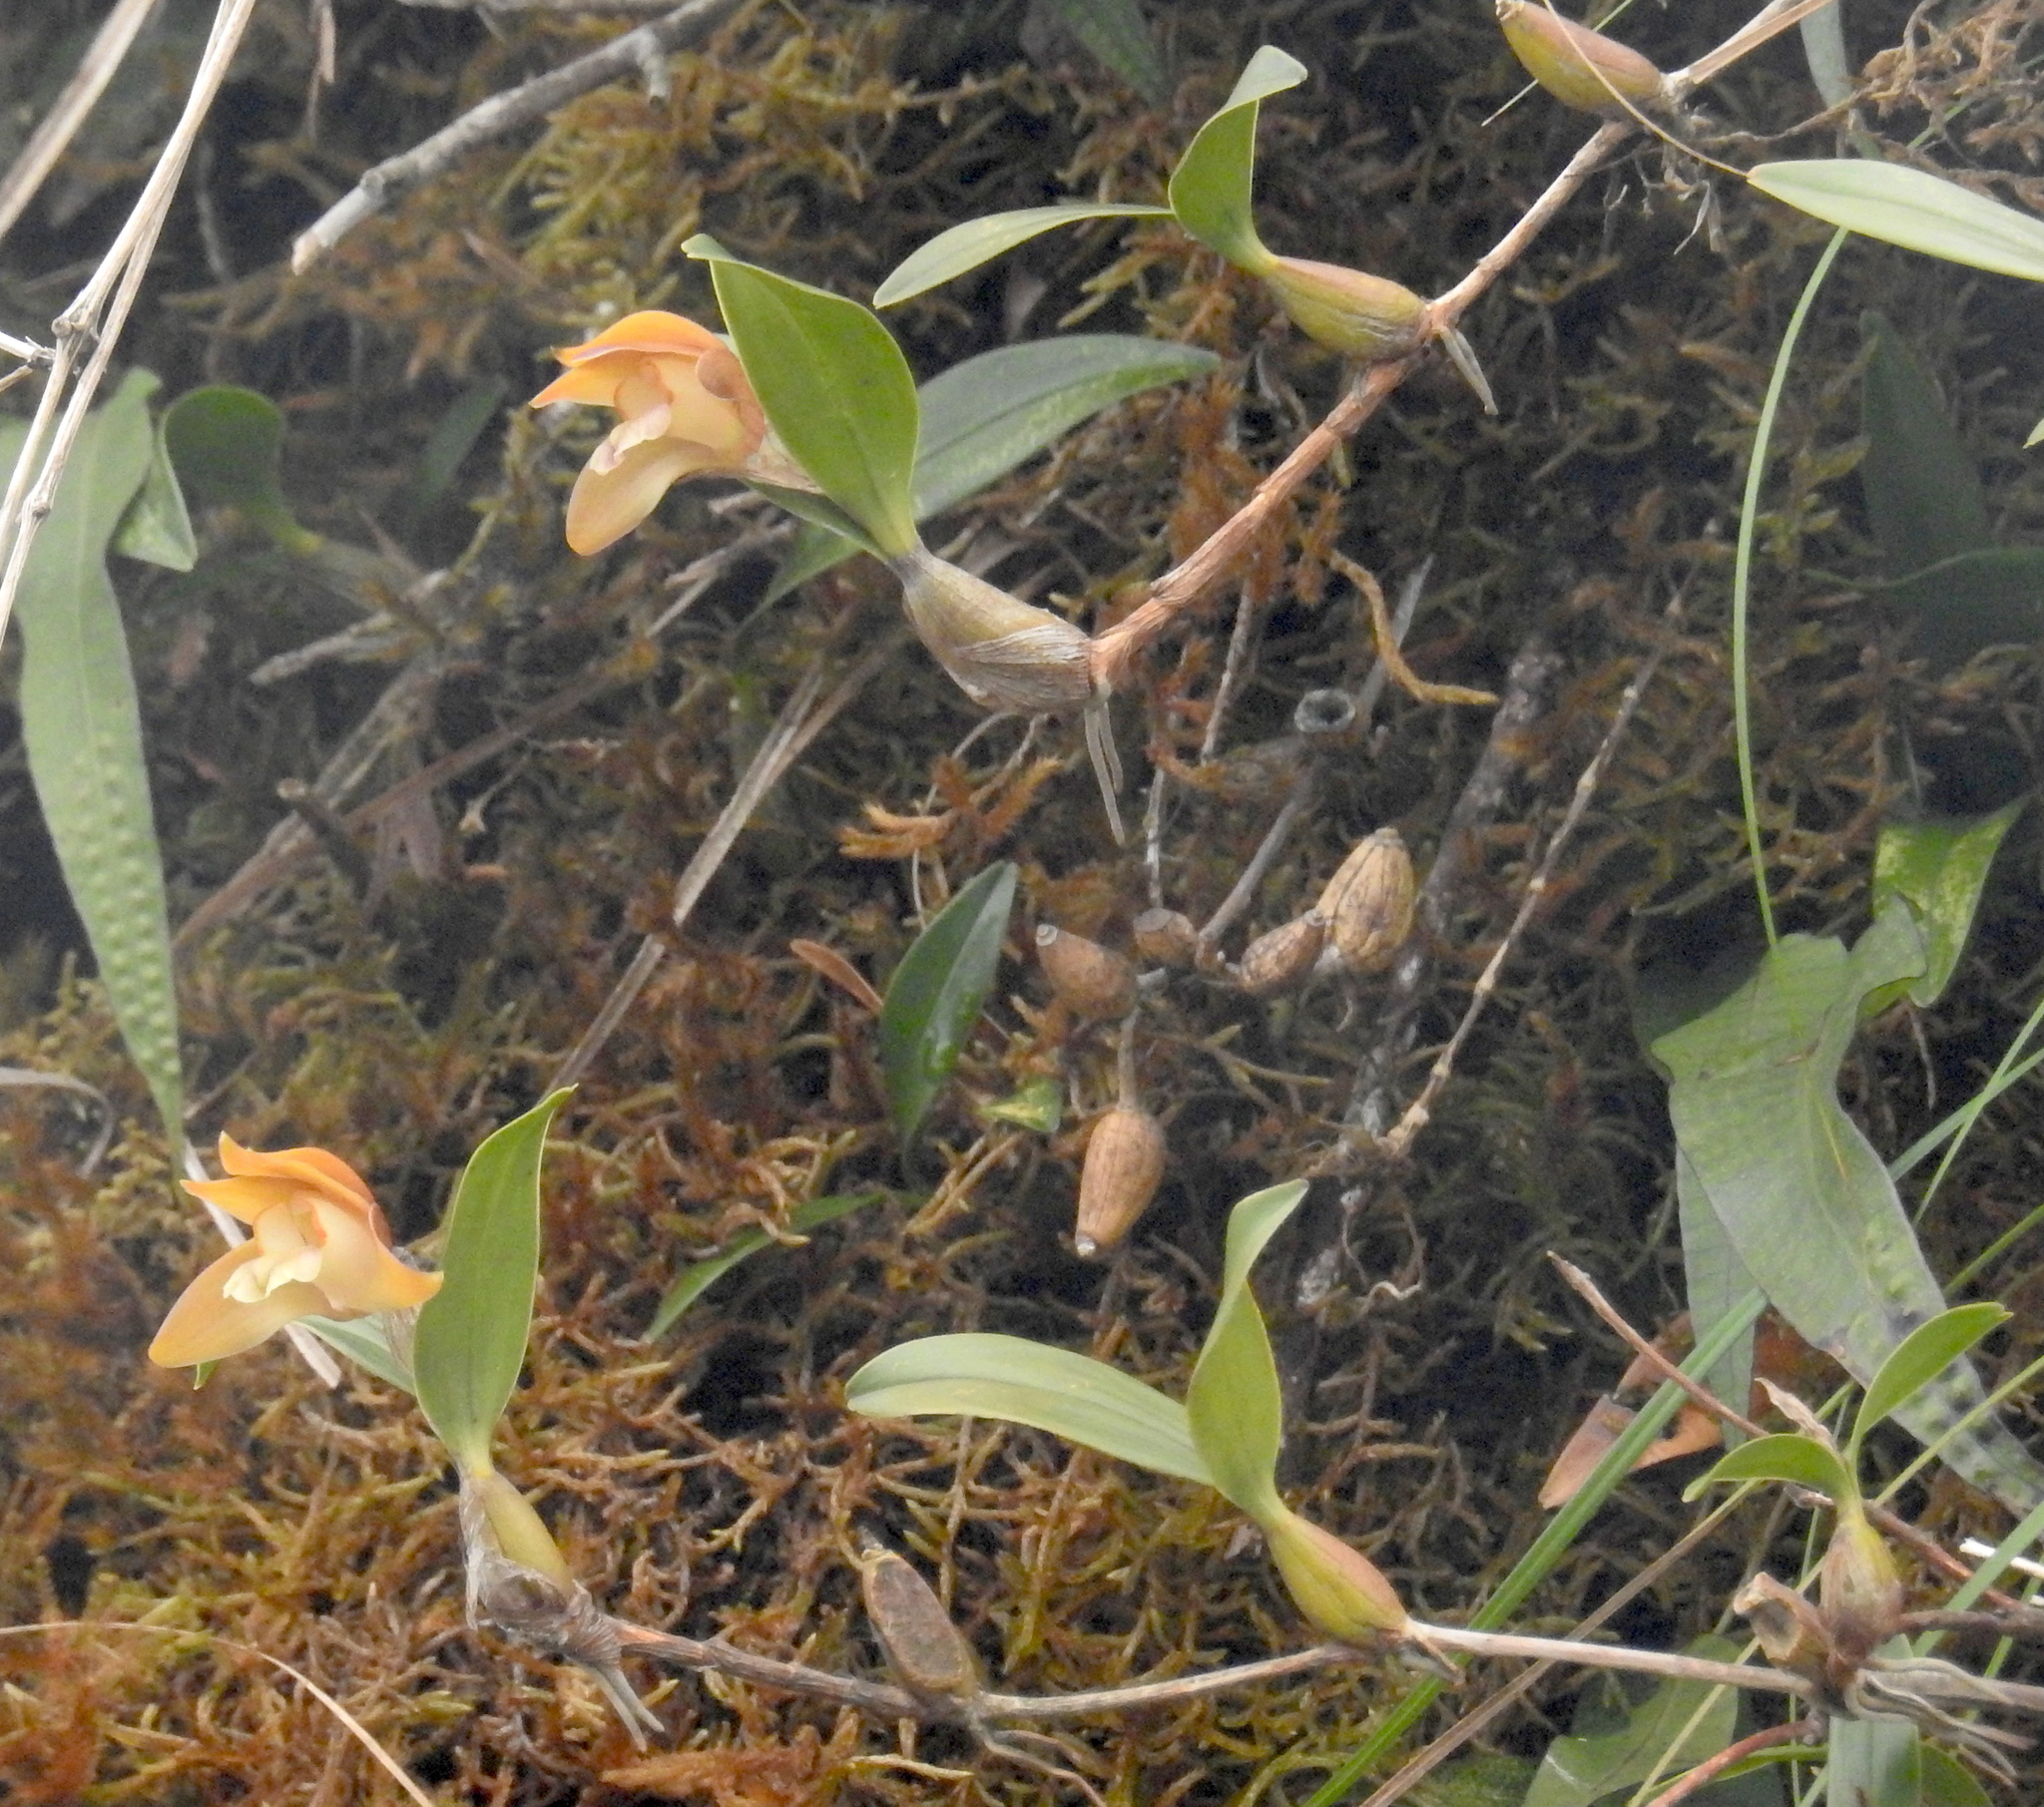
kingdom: Plantae
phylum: Tracheophyta
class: Liliopsida
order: Asparagales
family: Orchidaceae
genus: Dendrobium
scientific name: Dendrobium rotundatum
